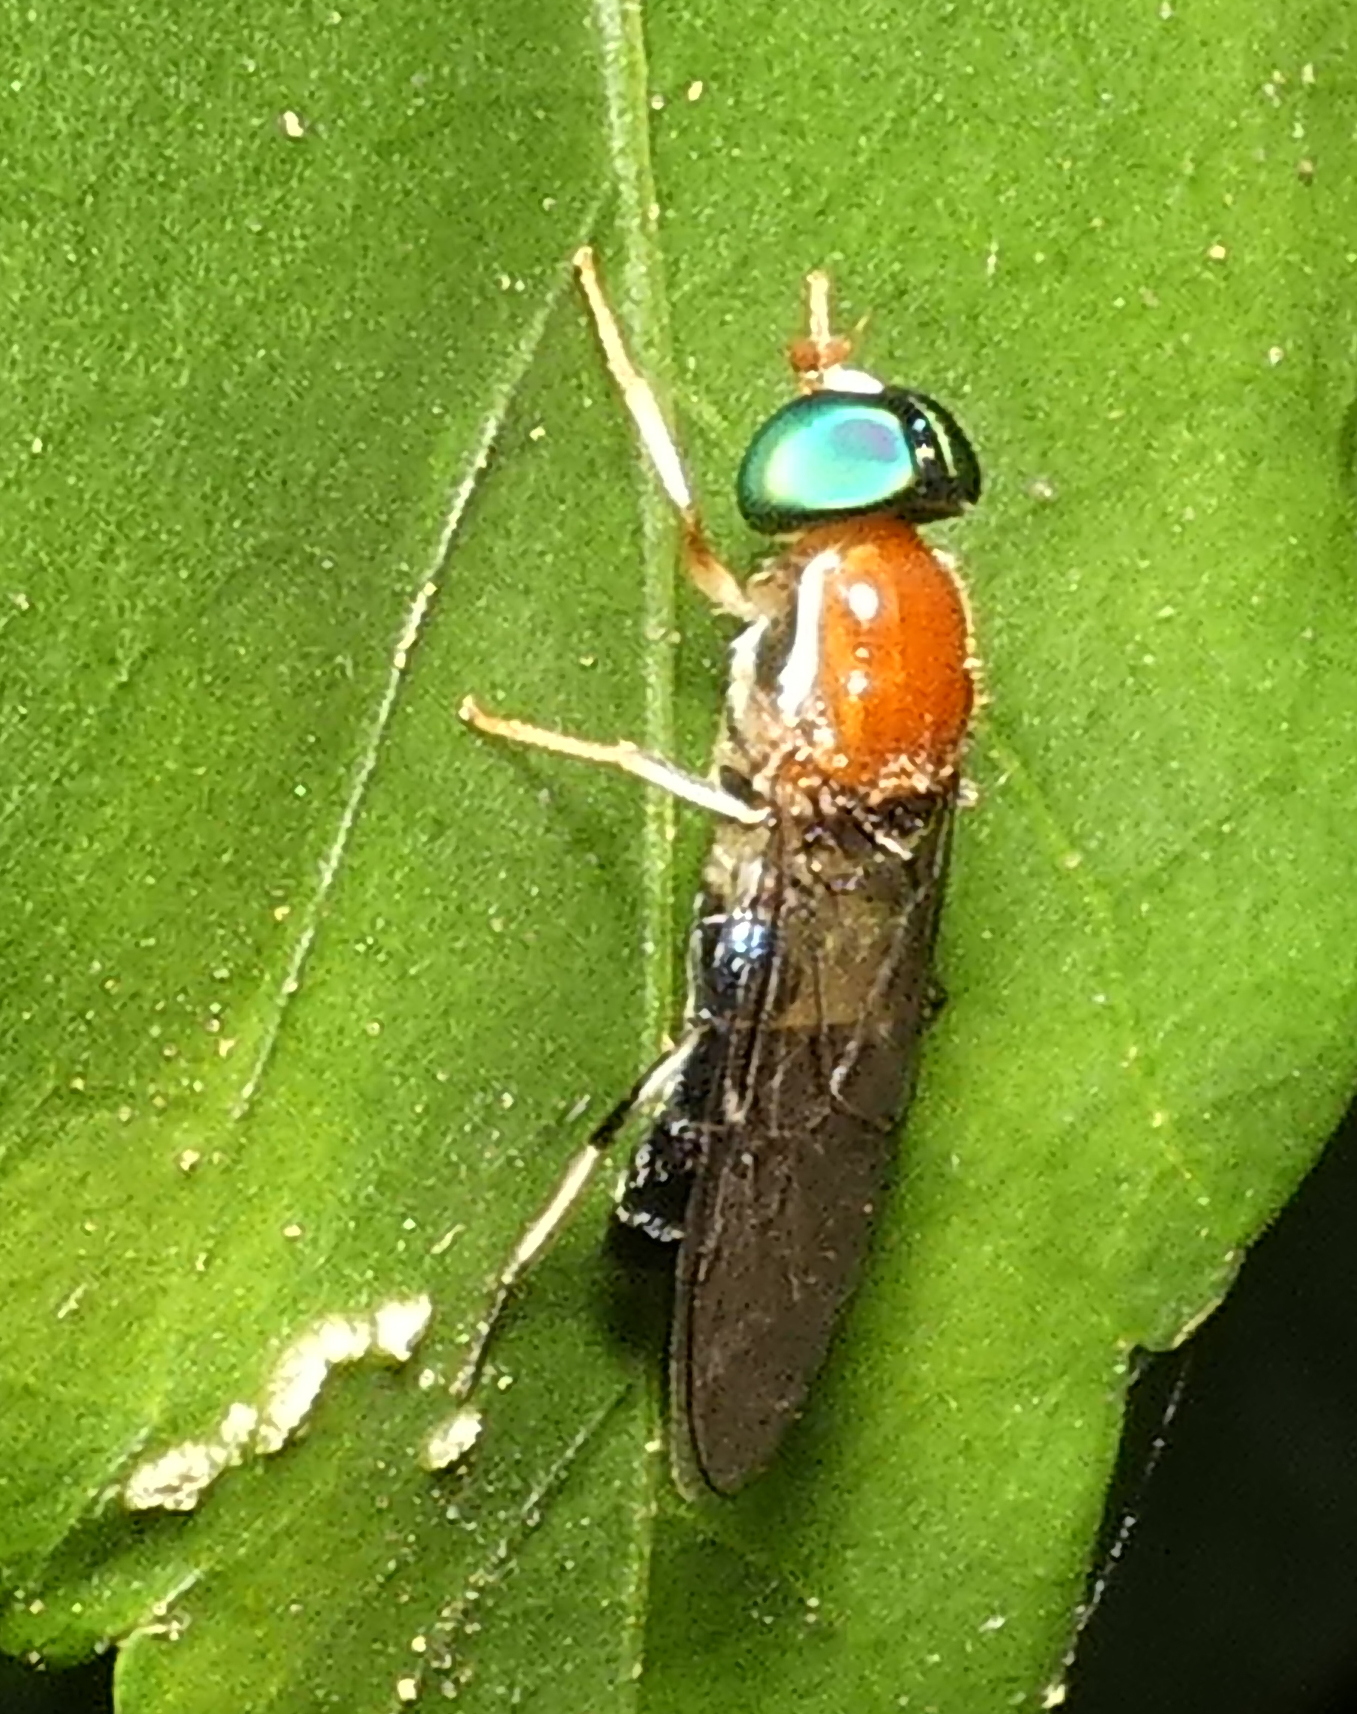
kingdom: Animalia
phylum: Arthropoda
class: Insecta
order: Diptera
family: Stratiomyidae
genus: Sargus
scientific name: Sargus thoracicus
